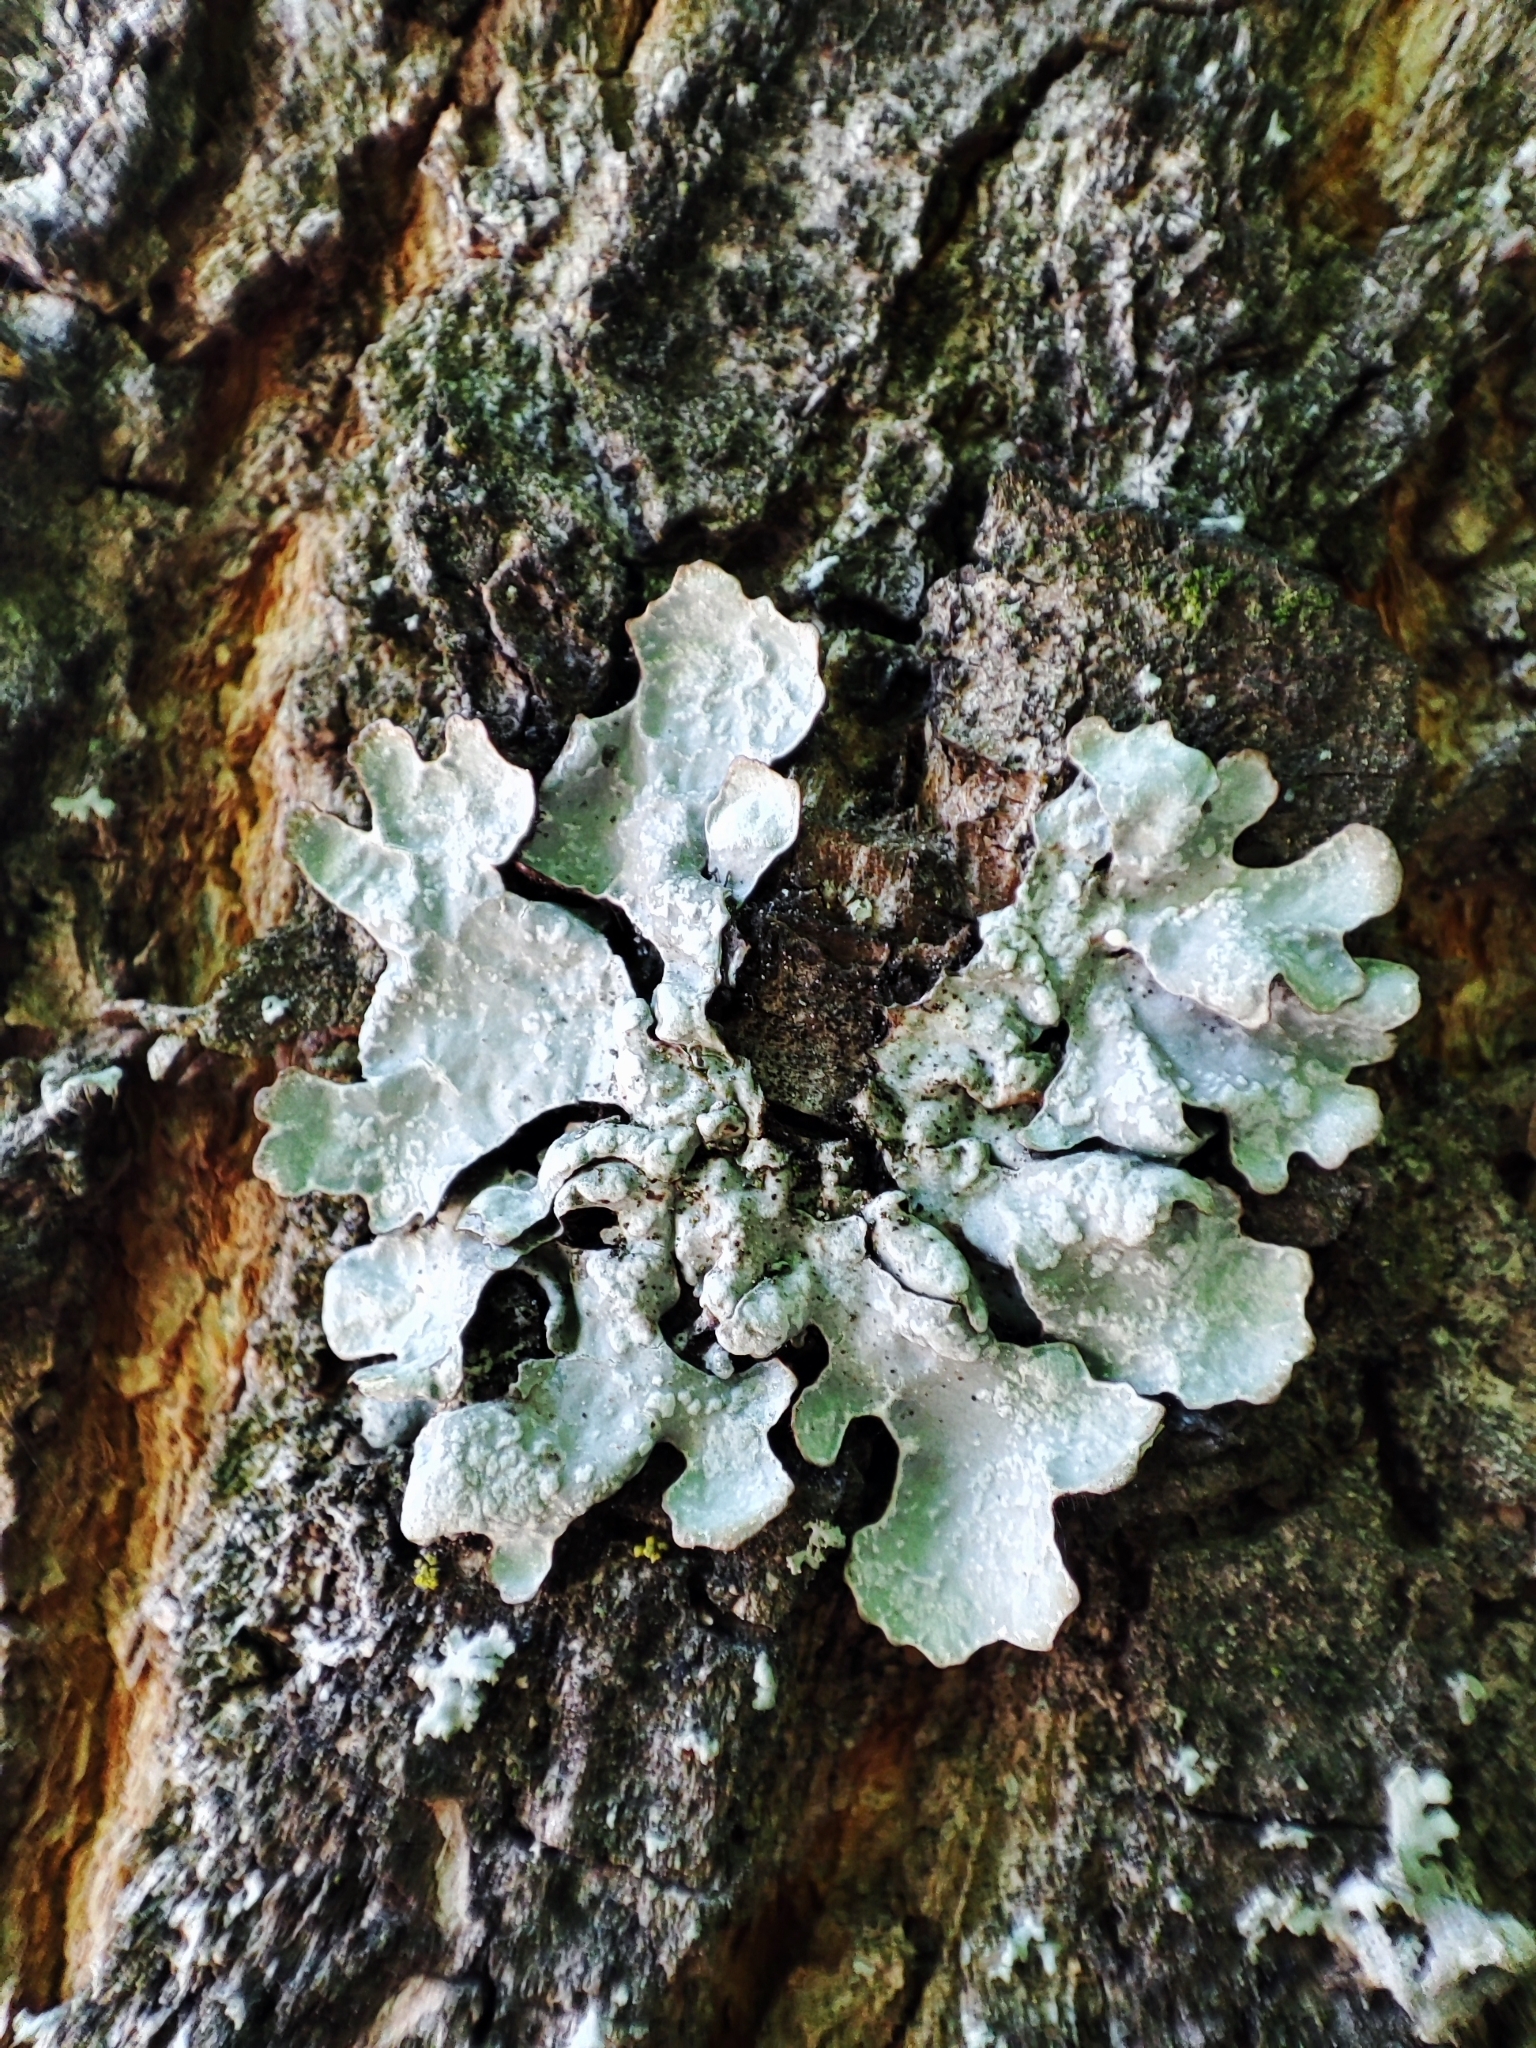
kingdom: Fungi
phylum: Ascomycota
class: Lecanoromycetes
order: Lecanorales
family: Parmeliaceae
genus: Parmelia
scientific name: Parmelia sulcata
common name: Netted shield lichen
